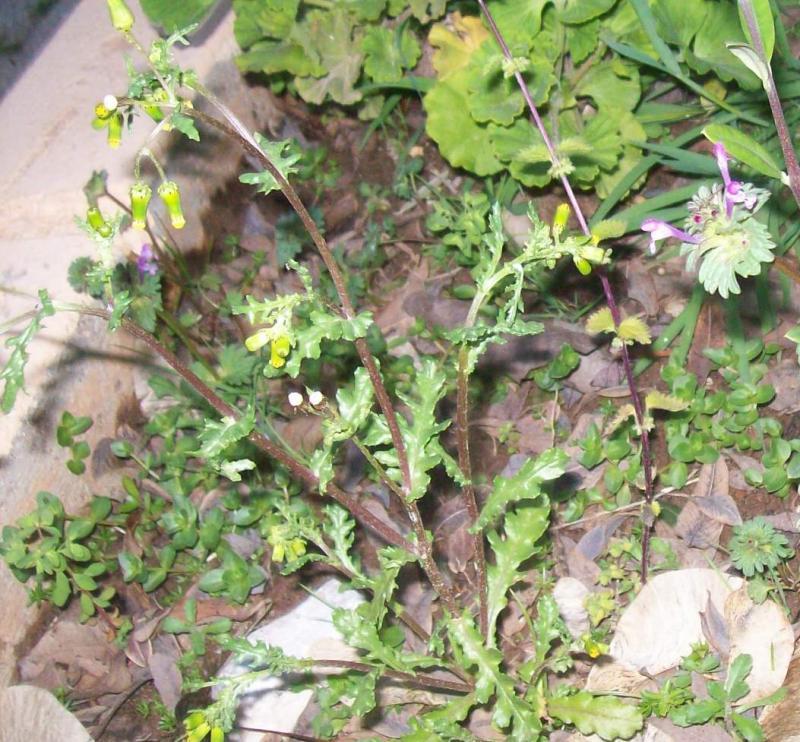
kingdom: Plantae
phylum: Tracheophyta
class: Magnoliopsida
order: Asterales
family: Asteraceae
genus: Senecio
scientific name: Senecio vulgaris
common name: Old-man-in-the-spring
